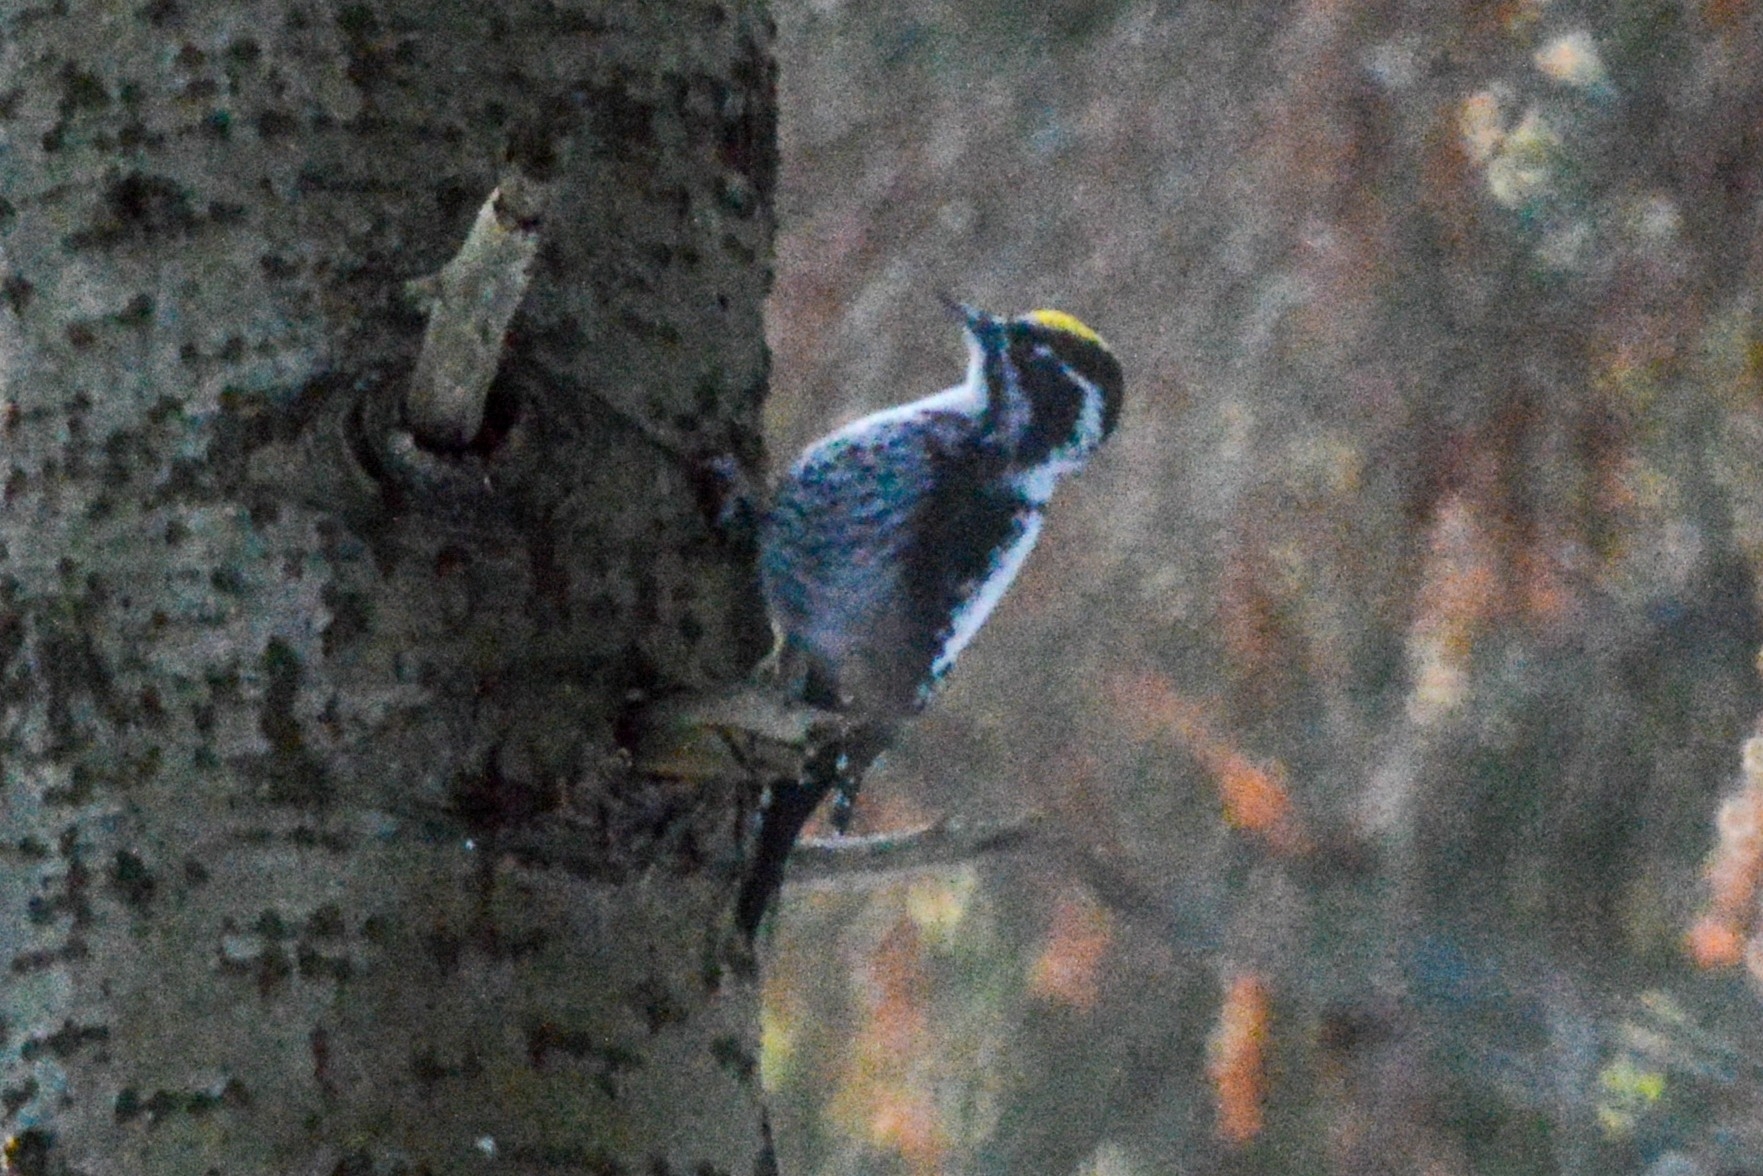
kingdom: Animalia
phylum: Chordata
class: Aves
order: Piciformes
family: Picidae
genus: Picoides
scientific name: Picoides tridactylus
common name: Eurasian three-toed woodpecker
